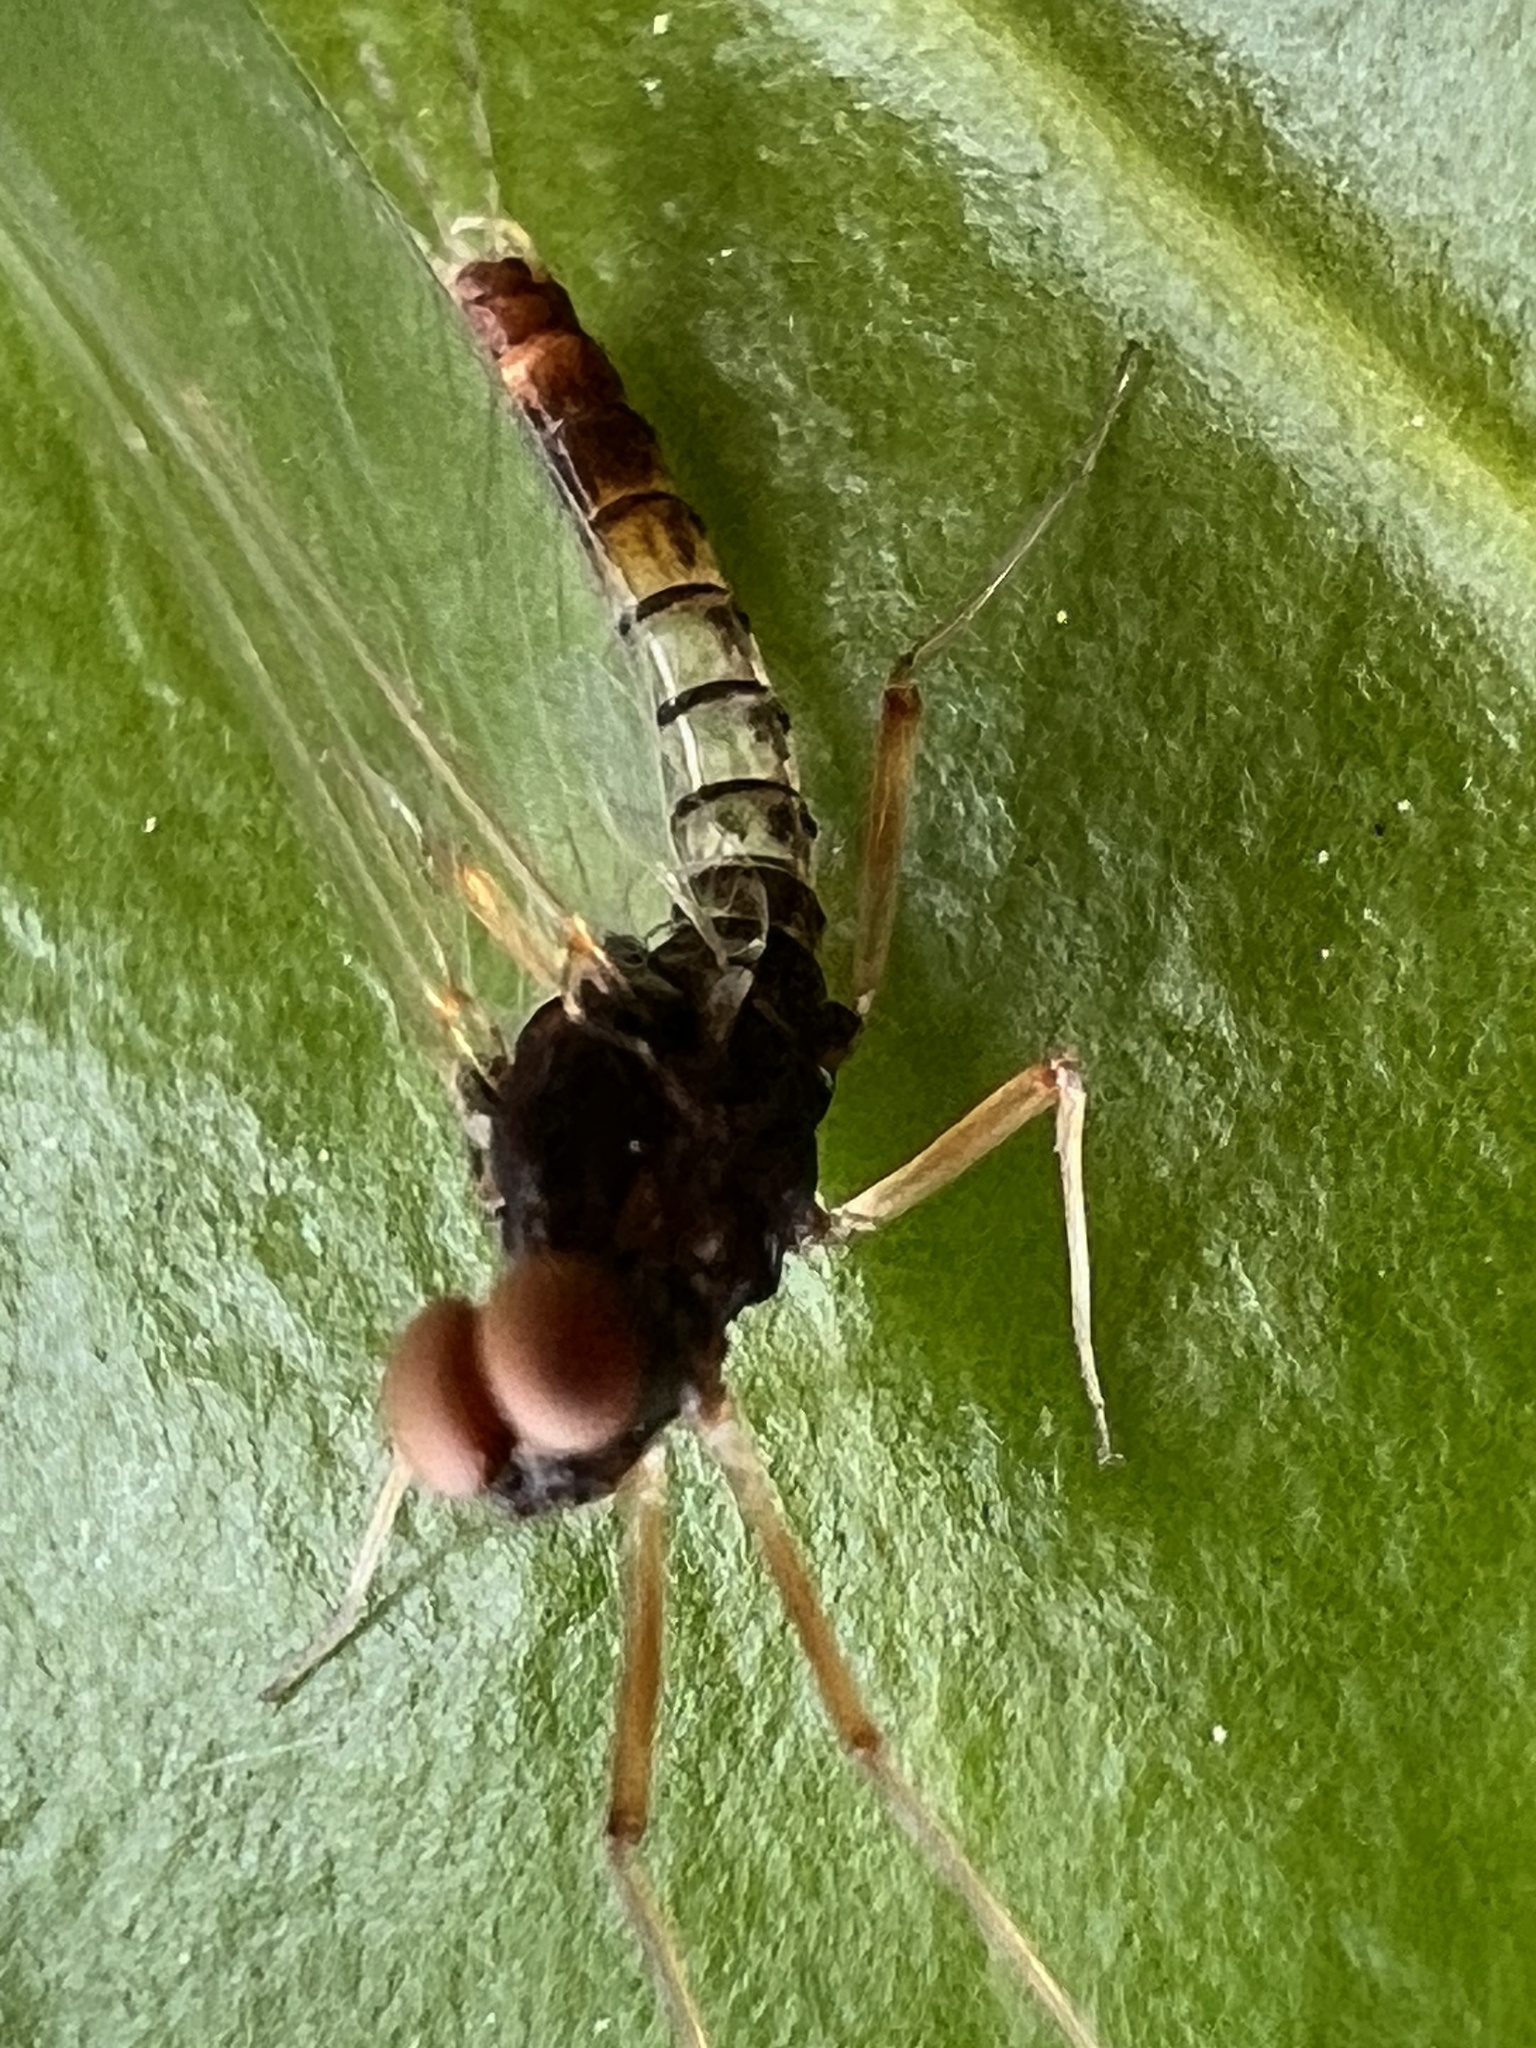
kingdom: Animalia
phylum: Arthropoda
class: Insecta
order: Ephemeroptera
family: Leptophlebiidae
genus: Mauiulus
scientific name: Mauiulus luma
